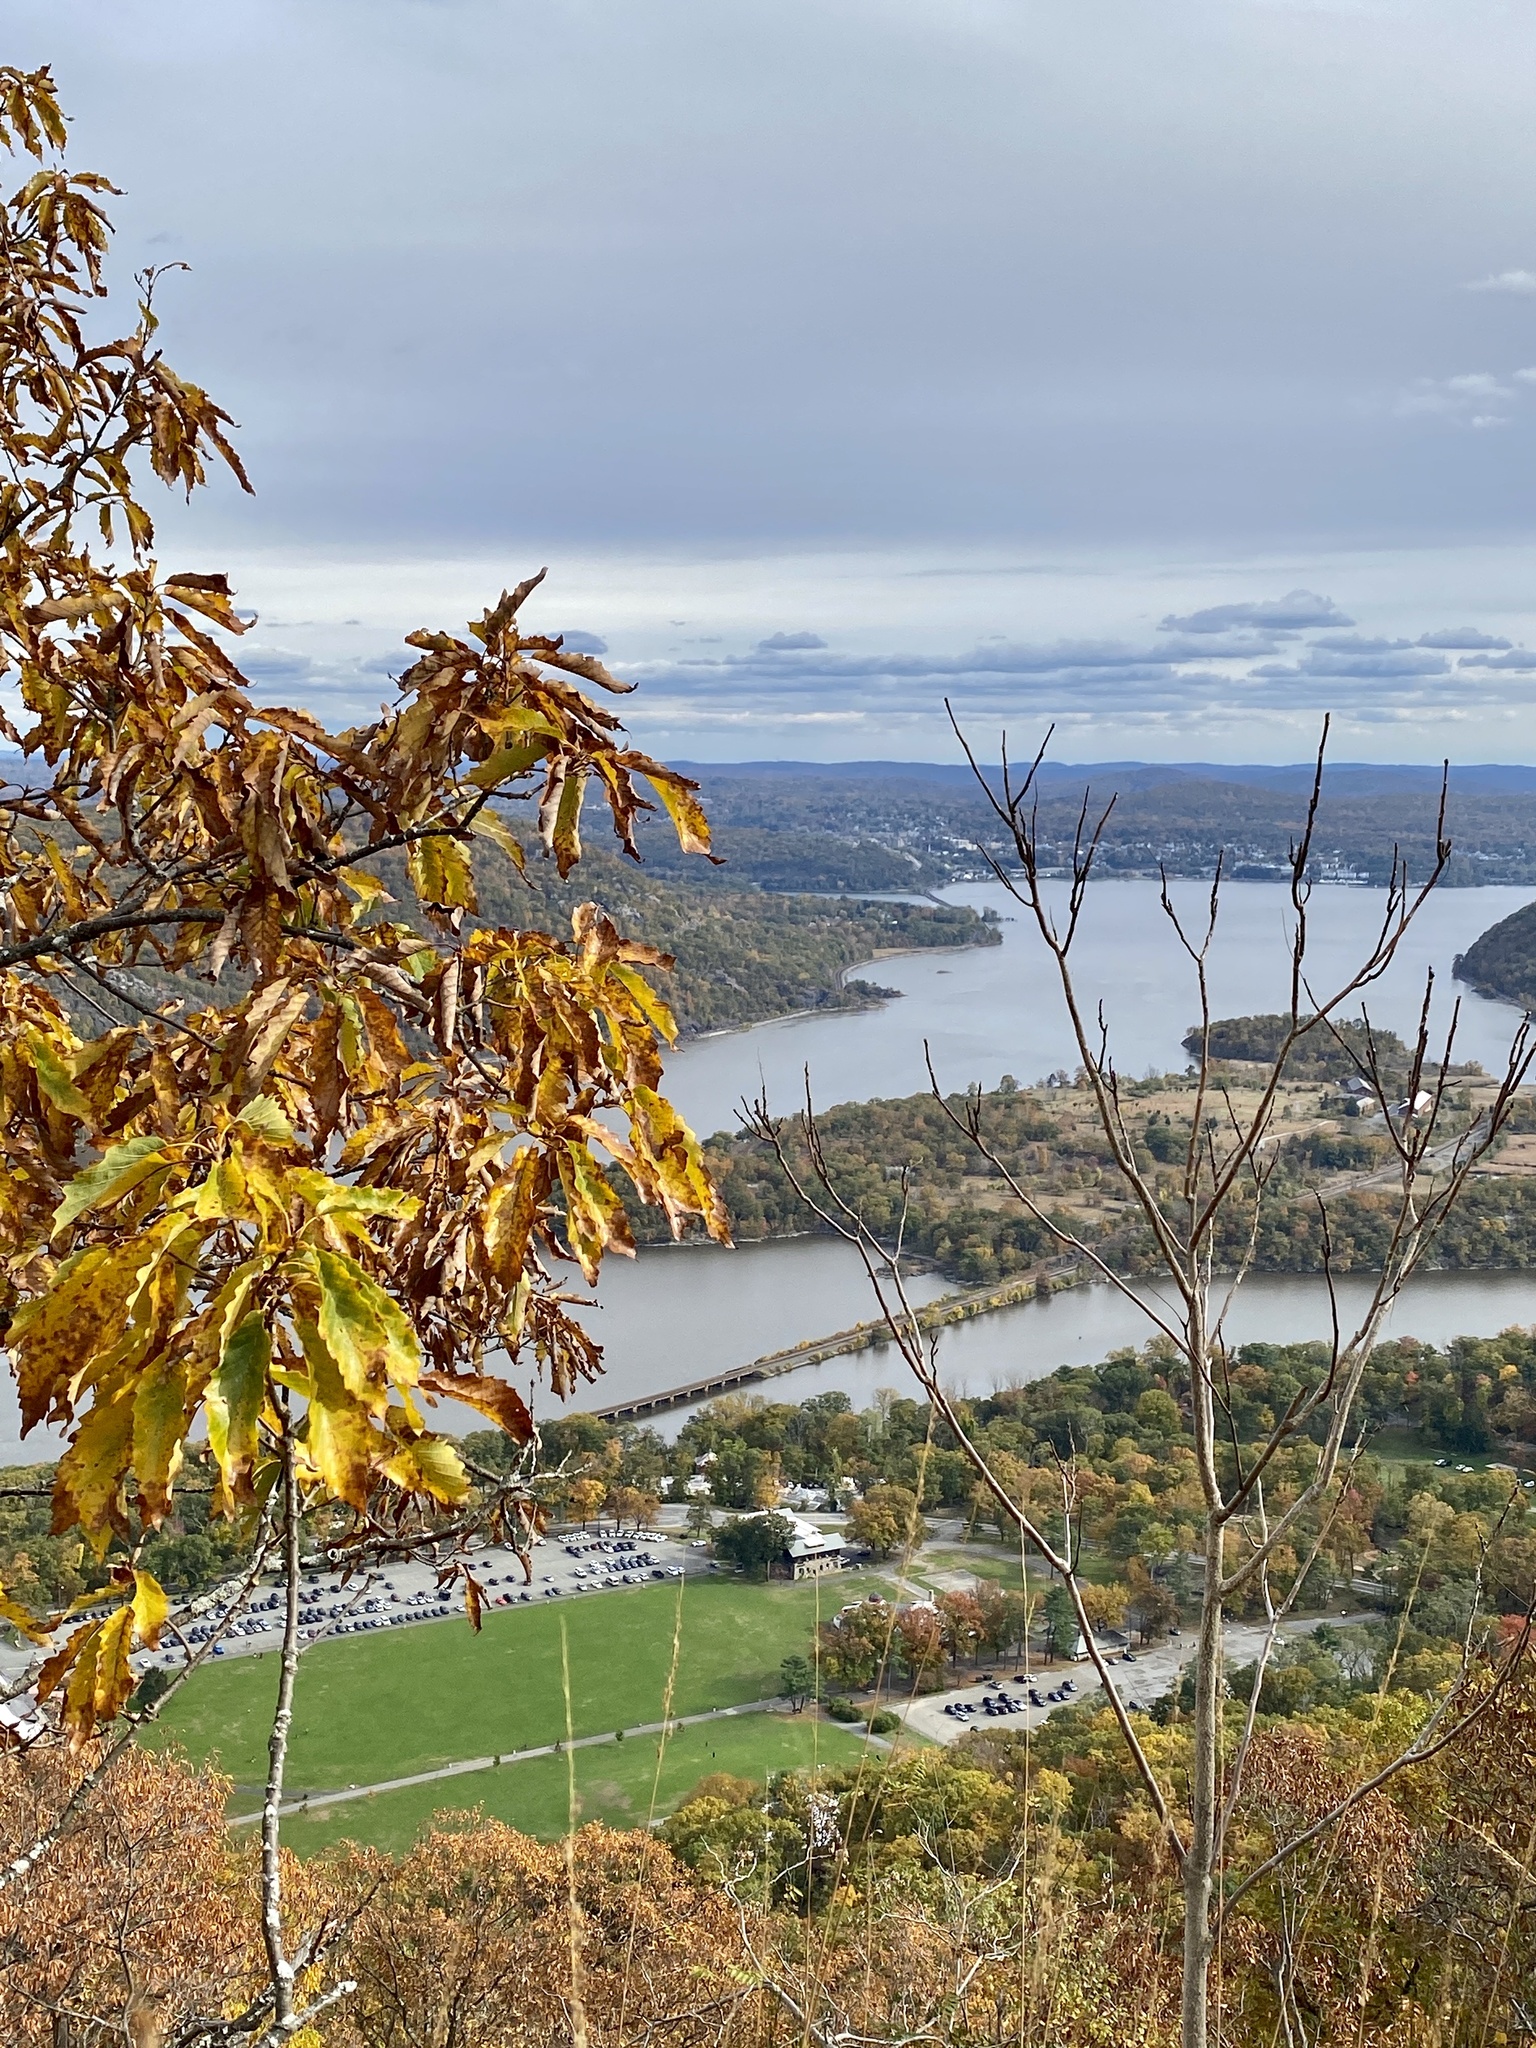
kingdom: Plantae
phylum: Tracheophyta
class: Magnoliopsida
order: Fagales
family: Fagaceae
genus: Quercus
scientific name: Quercus montana
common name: Chestnut oak
